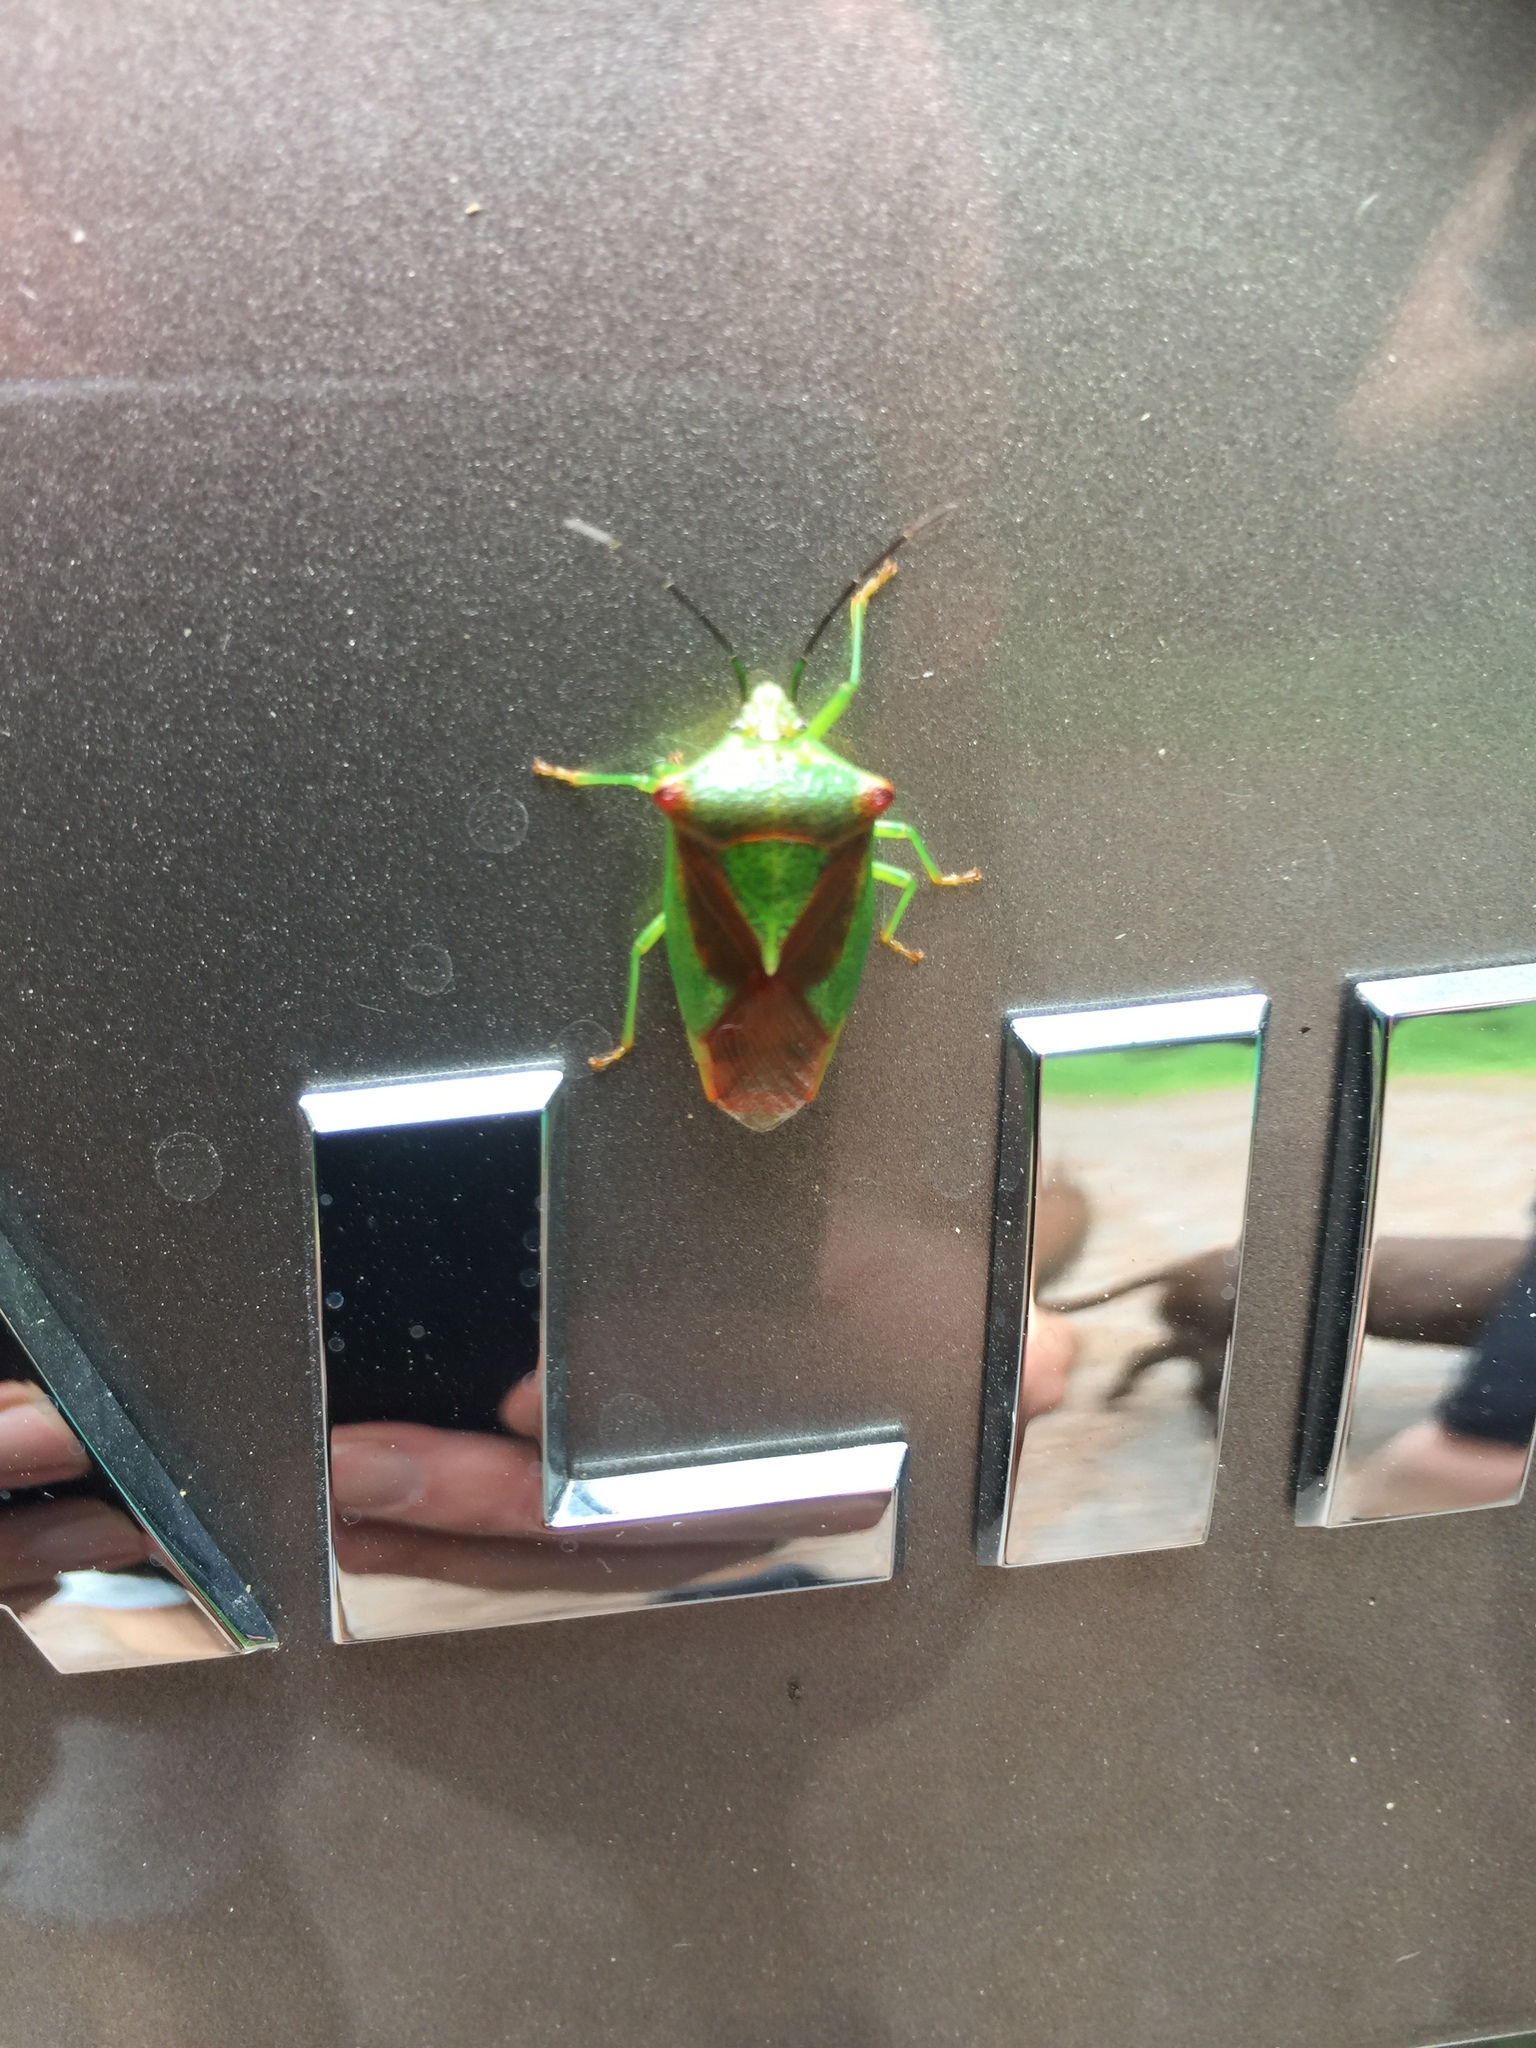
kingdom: Animalia
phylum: Arthropoda
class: Insecta
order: Hemiptera
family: Acanthosomatidae
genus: Acanthosoma
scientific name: Acanthosoma haemorrhoidale
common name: Hawthorn shieldbug
